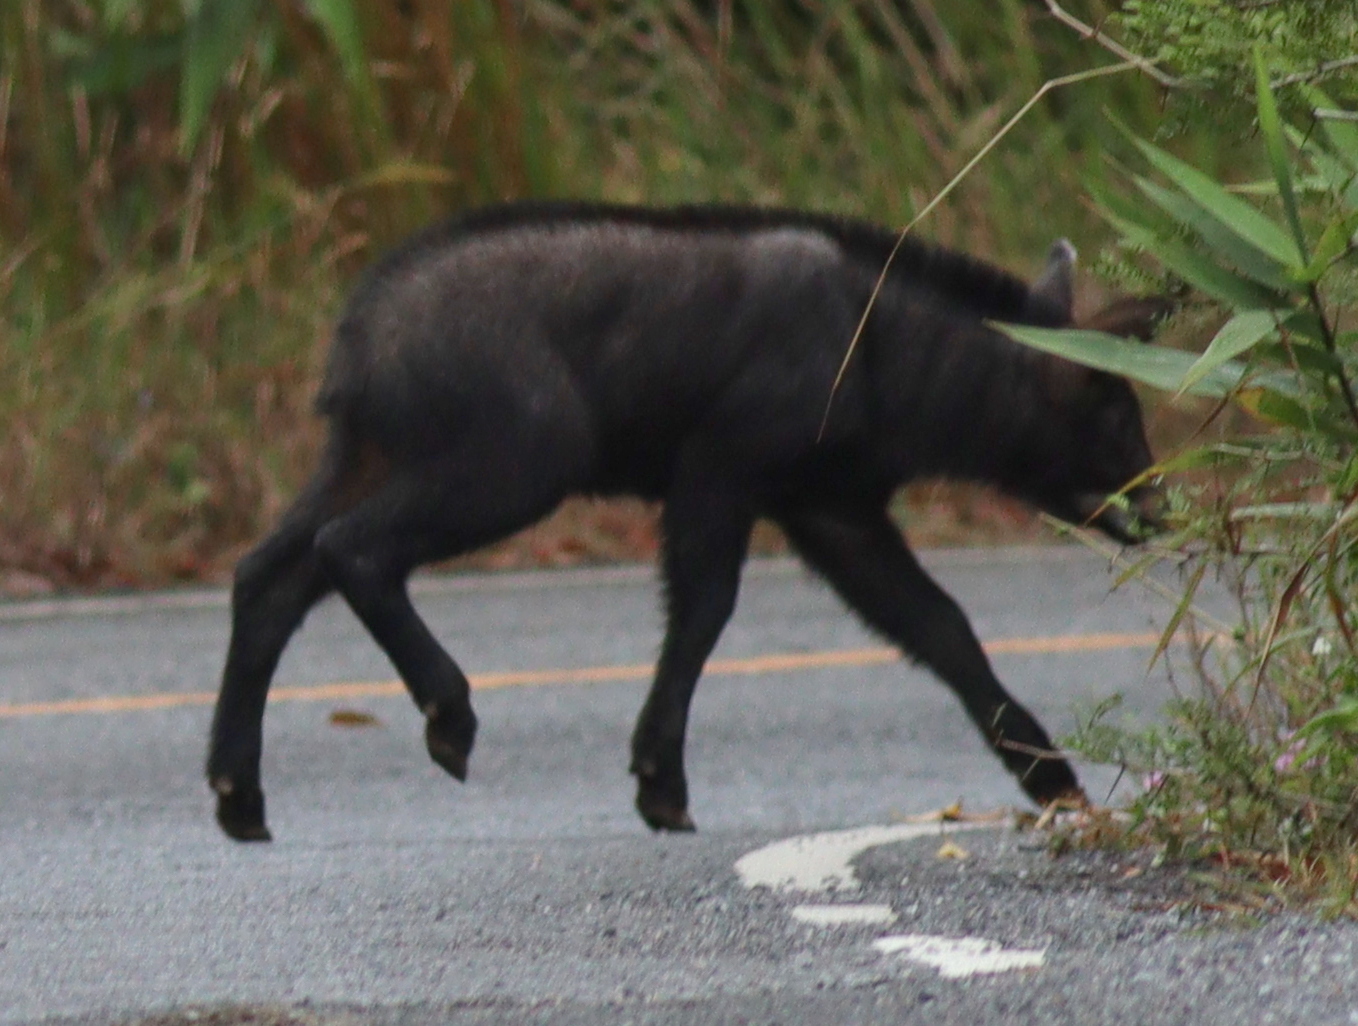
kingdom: Animalia
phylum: Chordata
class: Mammalia
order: Artiodactyla
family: Bovidae
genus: Capricornis
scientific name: Capricornis sumatraensis
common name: Sumatran serow
